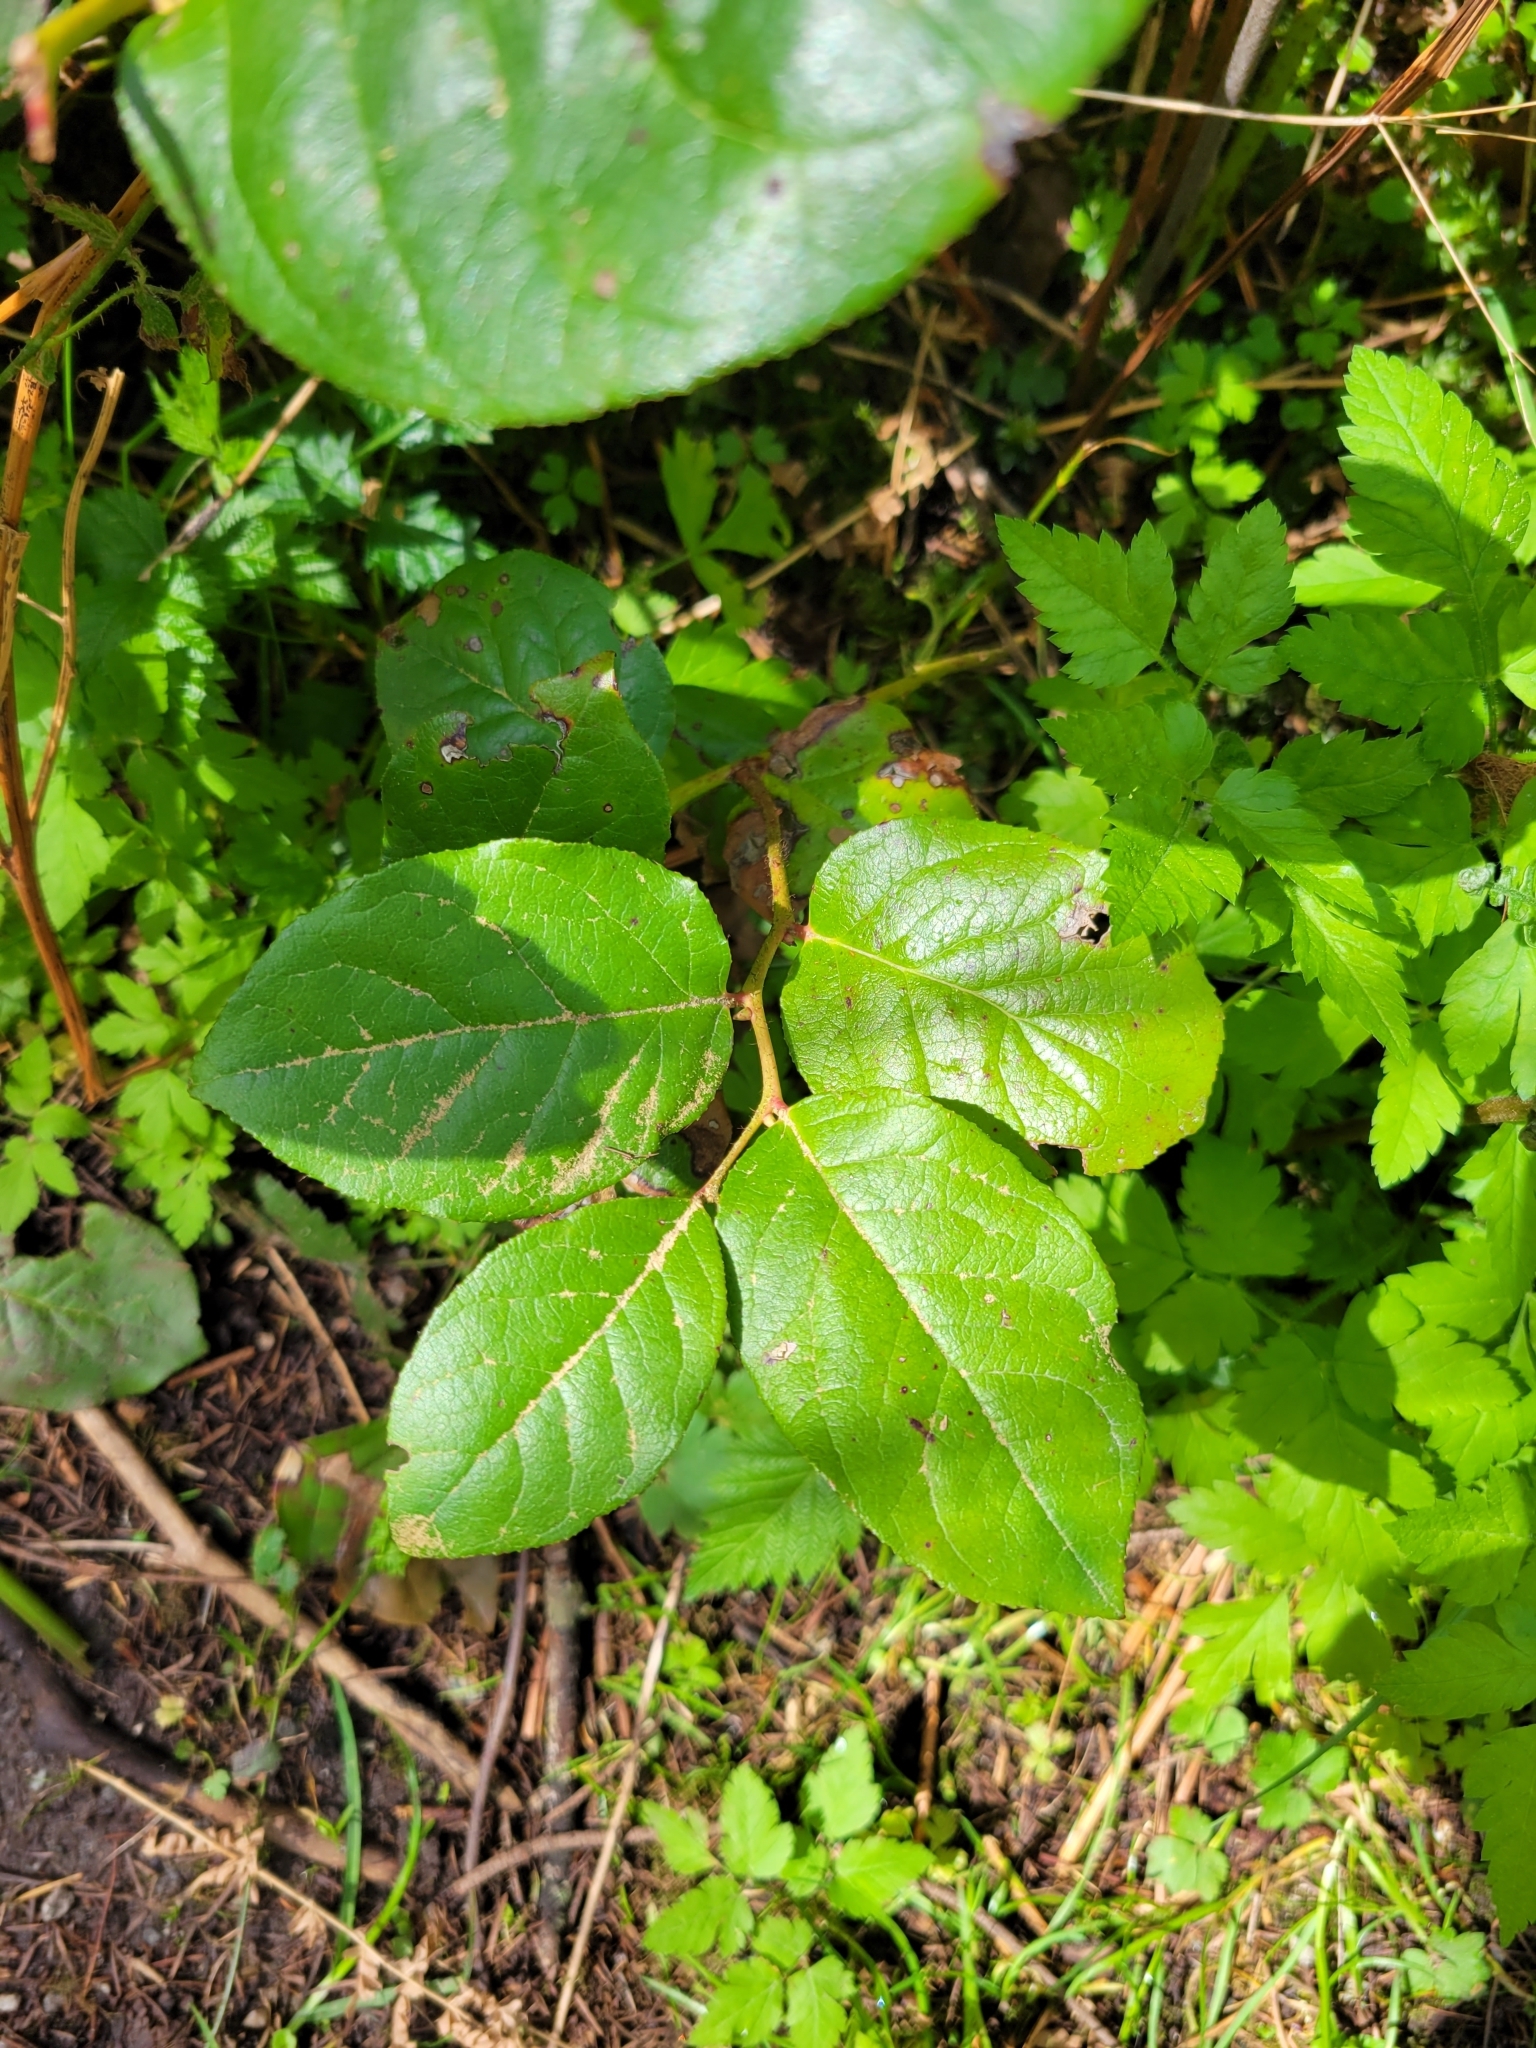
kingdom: Plantae
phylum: Tracheophyta
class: Magnoliopsida
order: Ericales
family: Ericaceae
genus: Gaultheria
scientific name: Gaultheria shallon
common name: Shallon
